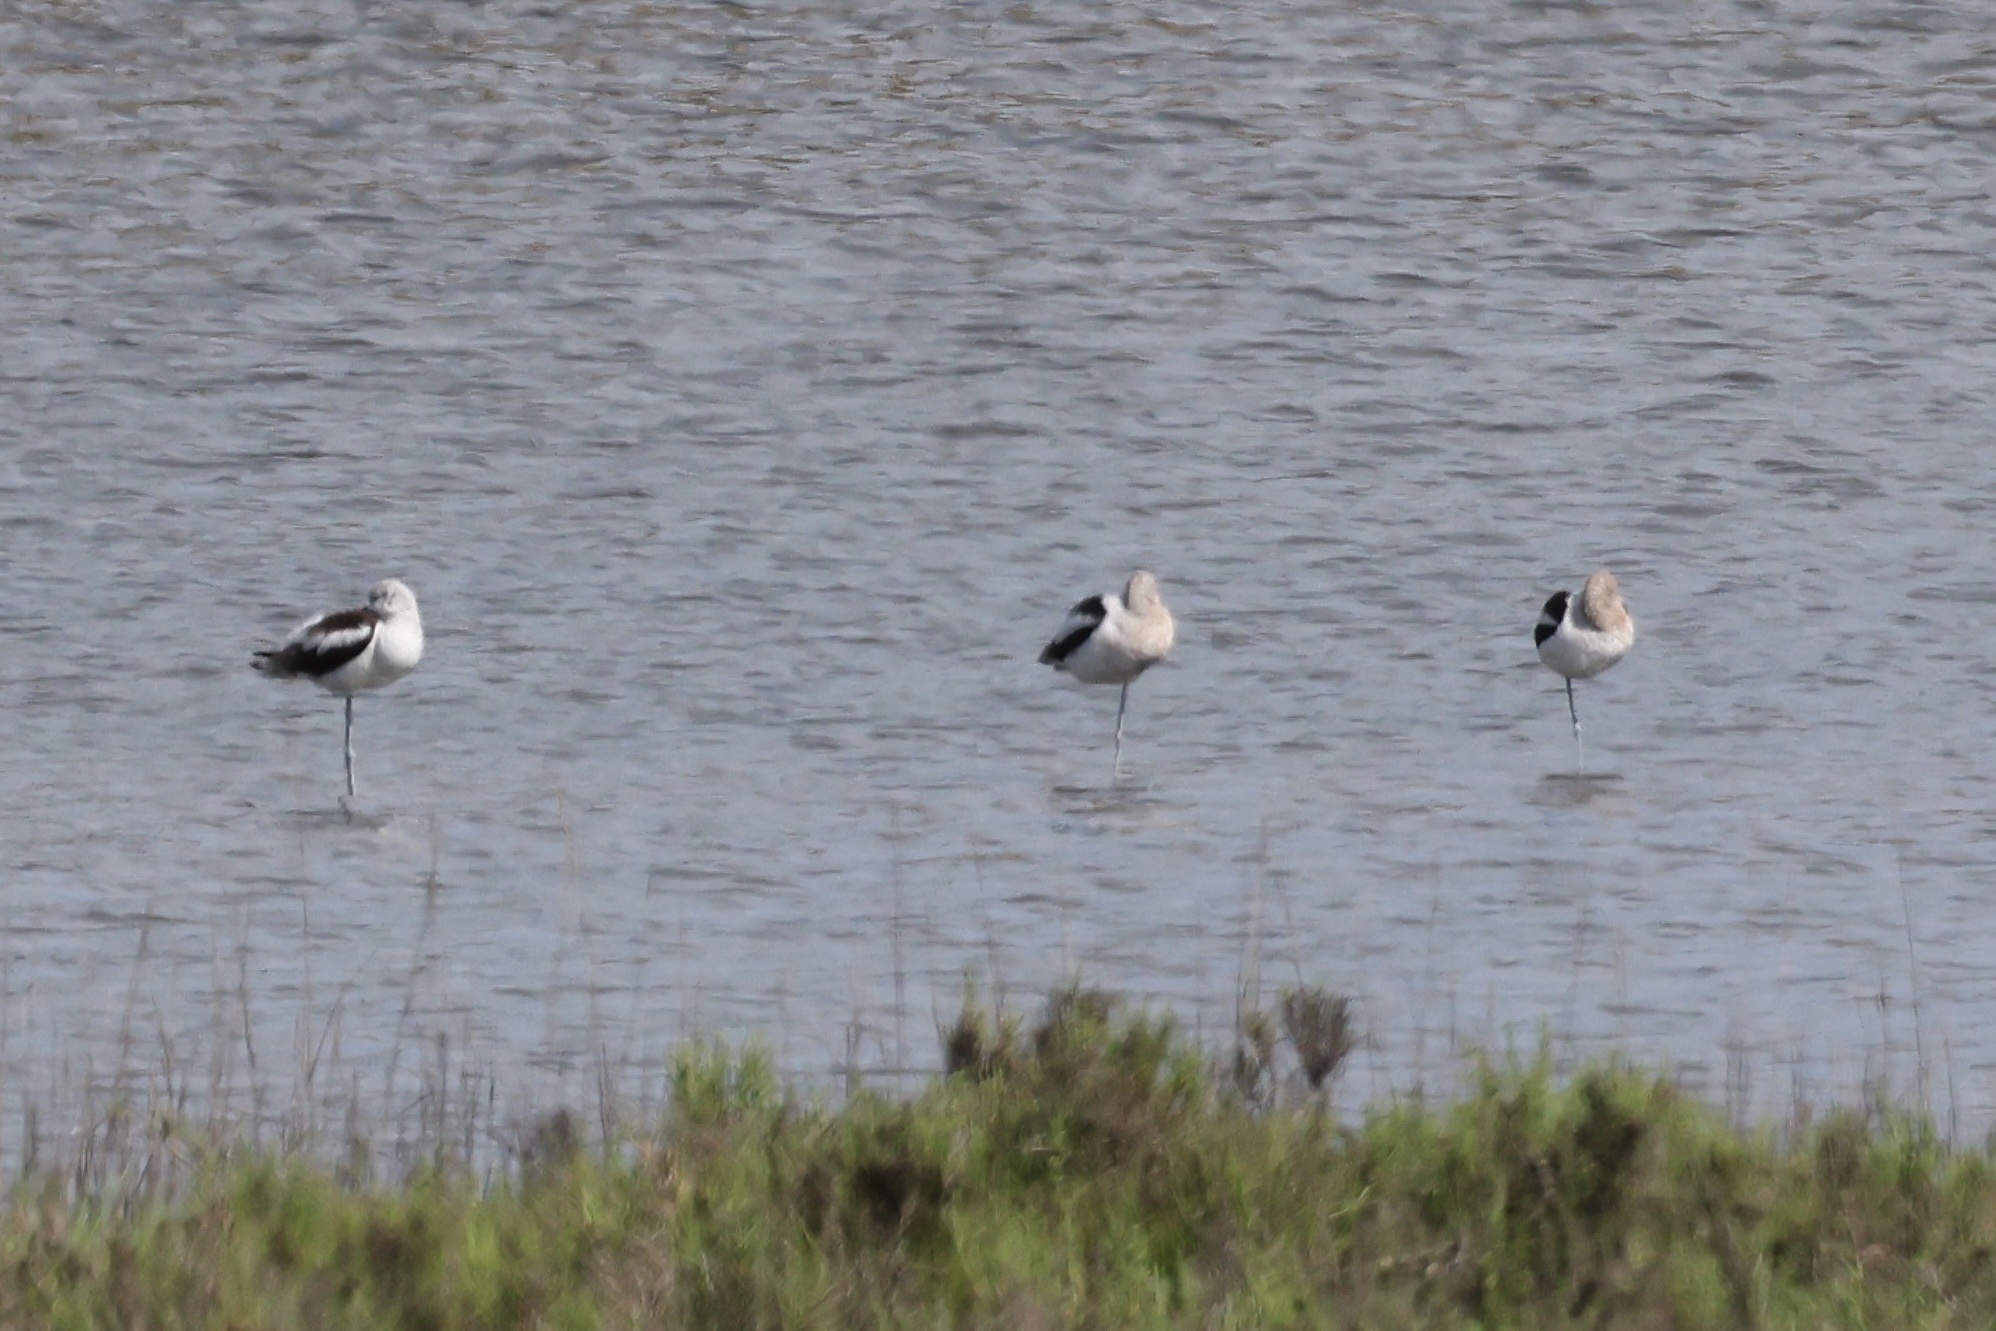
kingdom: Animalia
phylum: Chordata
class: Aves
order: Charadriiformes
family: Recurvirostridae
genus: Recurvirostra
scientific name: Recurvirostra americana
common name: American avocet
